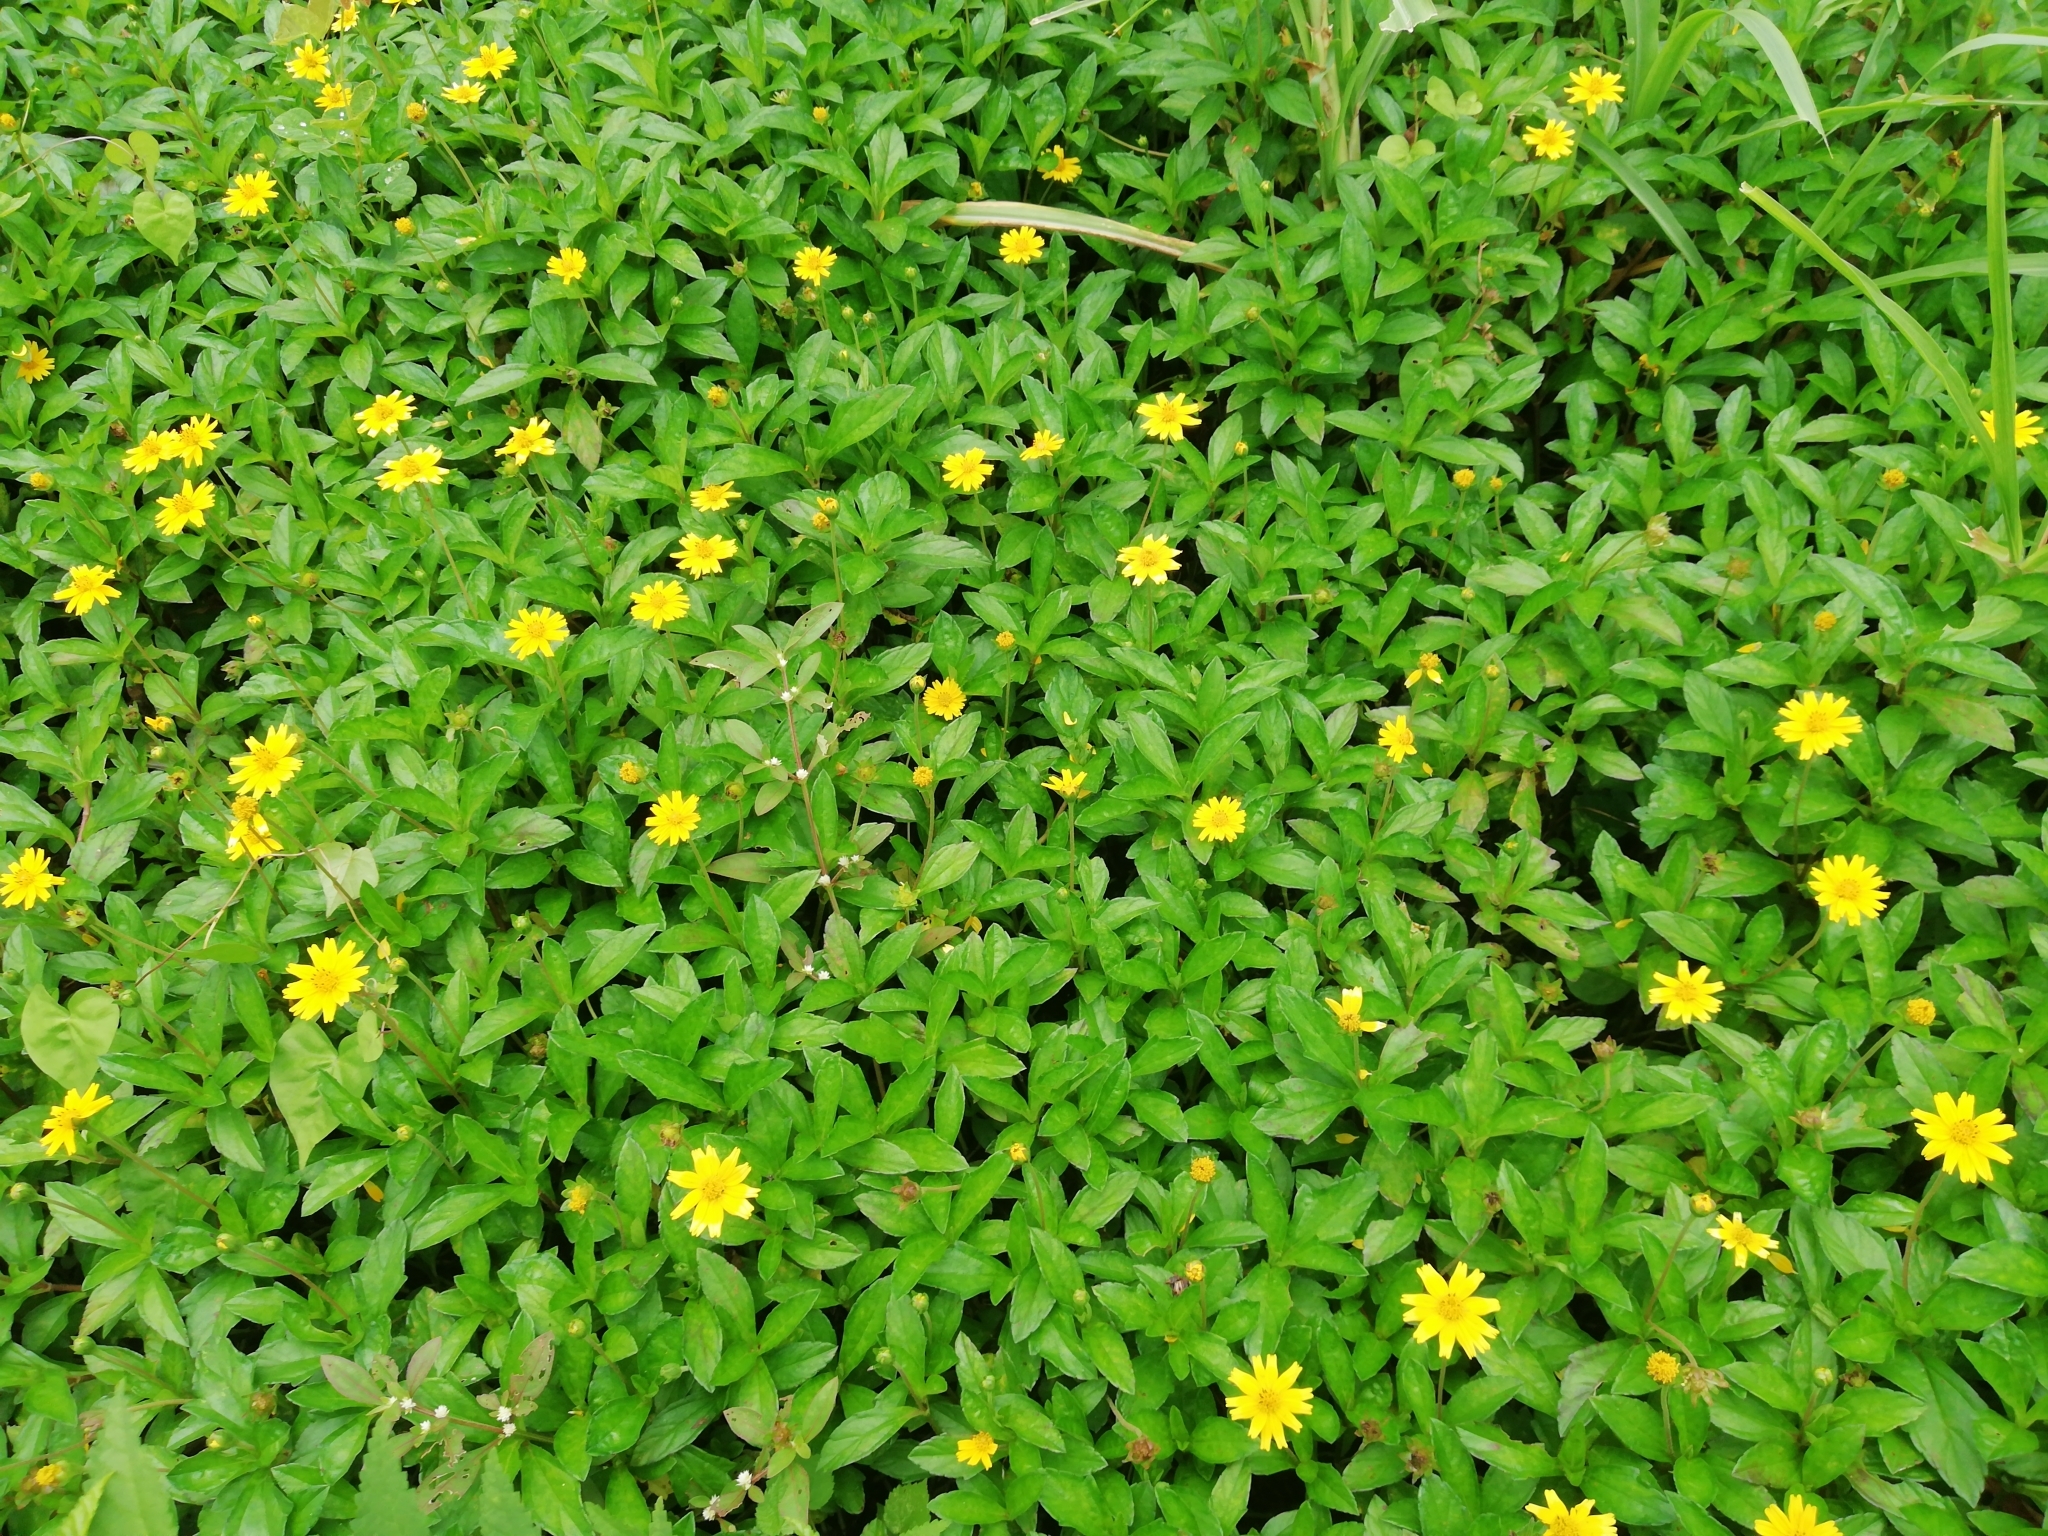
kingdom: Plantae
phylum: Tracheophyta
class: Magnoliopsida
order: Asterales
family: Asteraceae
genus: Sphagneticola
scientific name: Sphagneticola trilobata
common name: Bay biscayne creeping-oxeye
